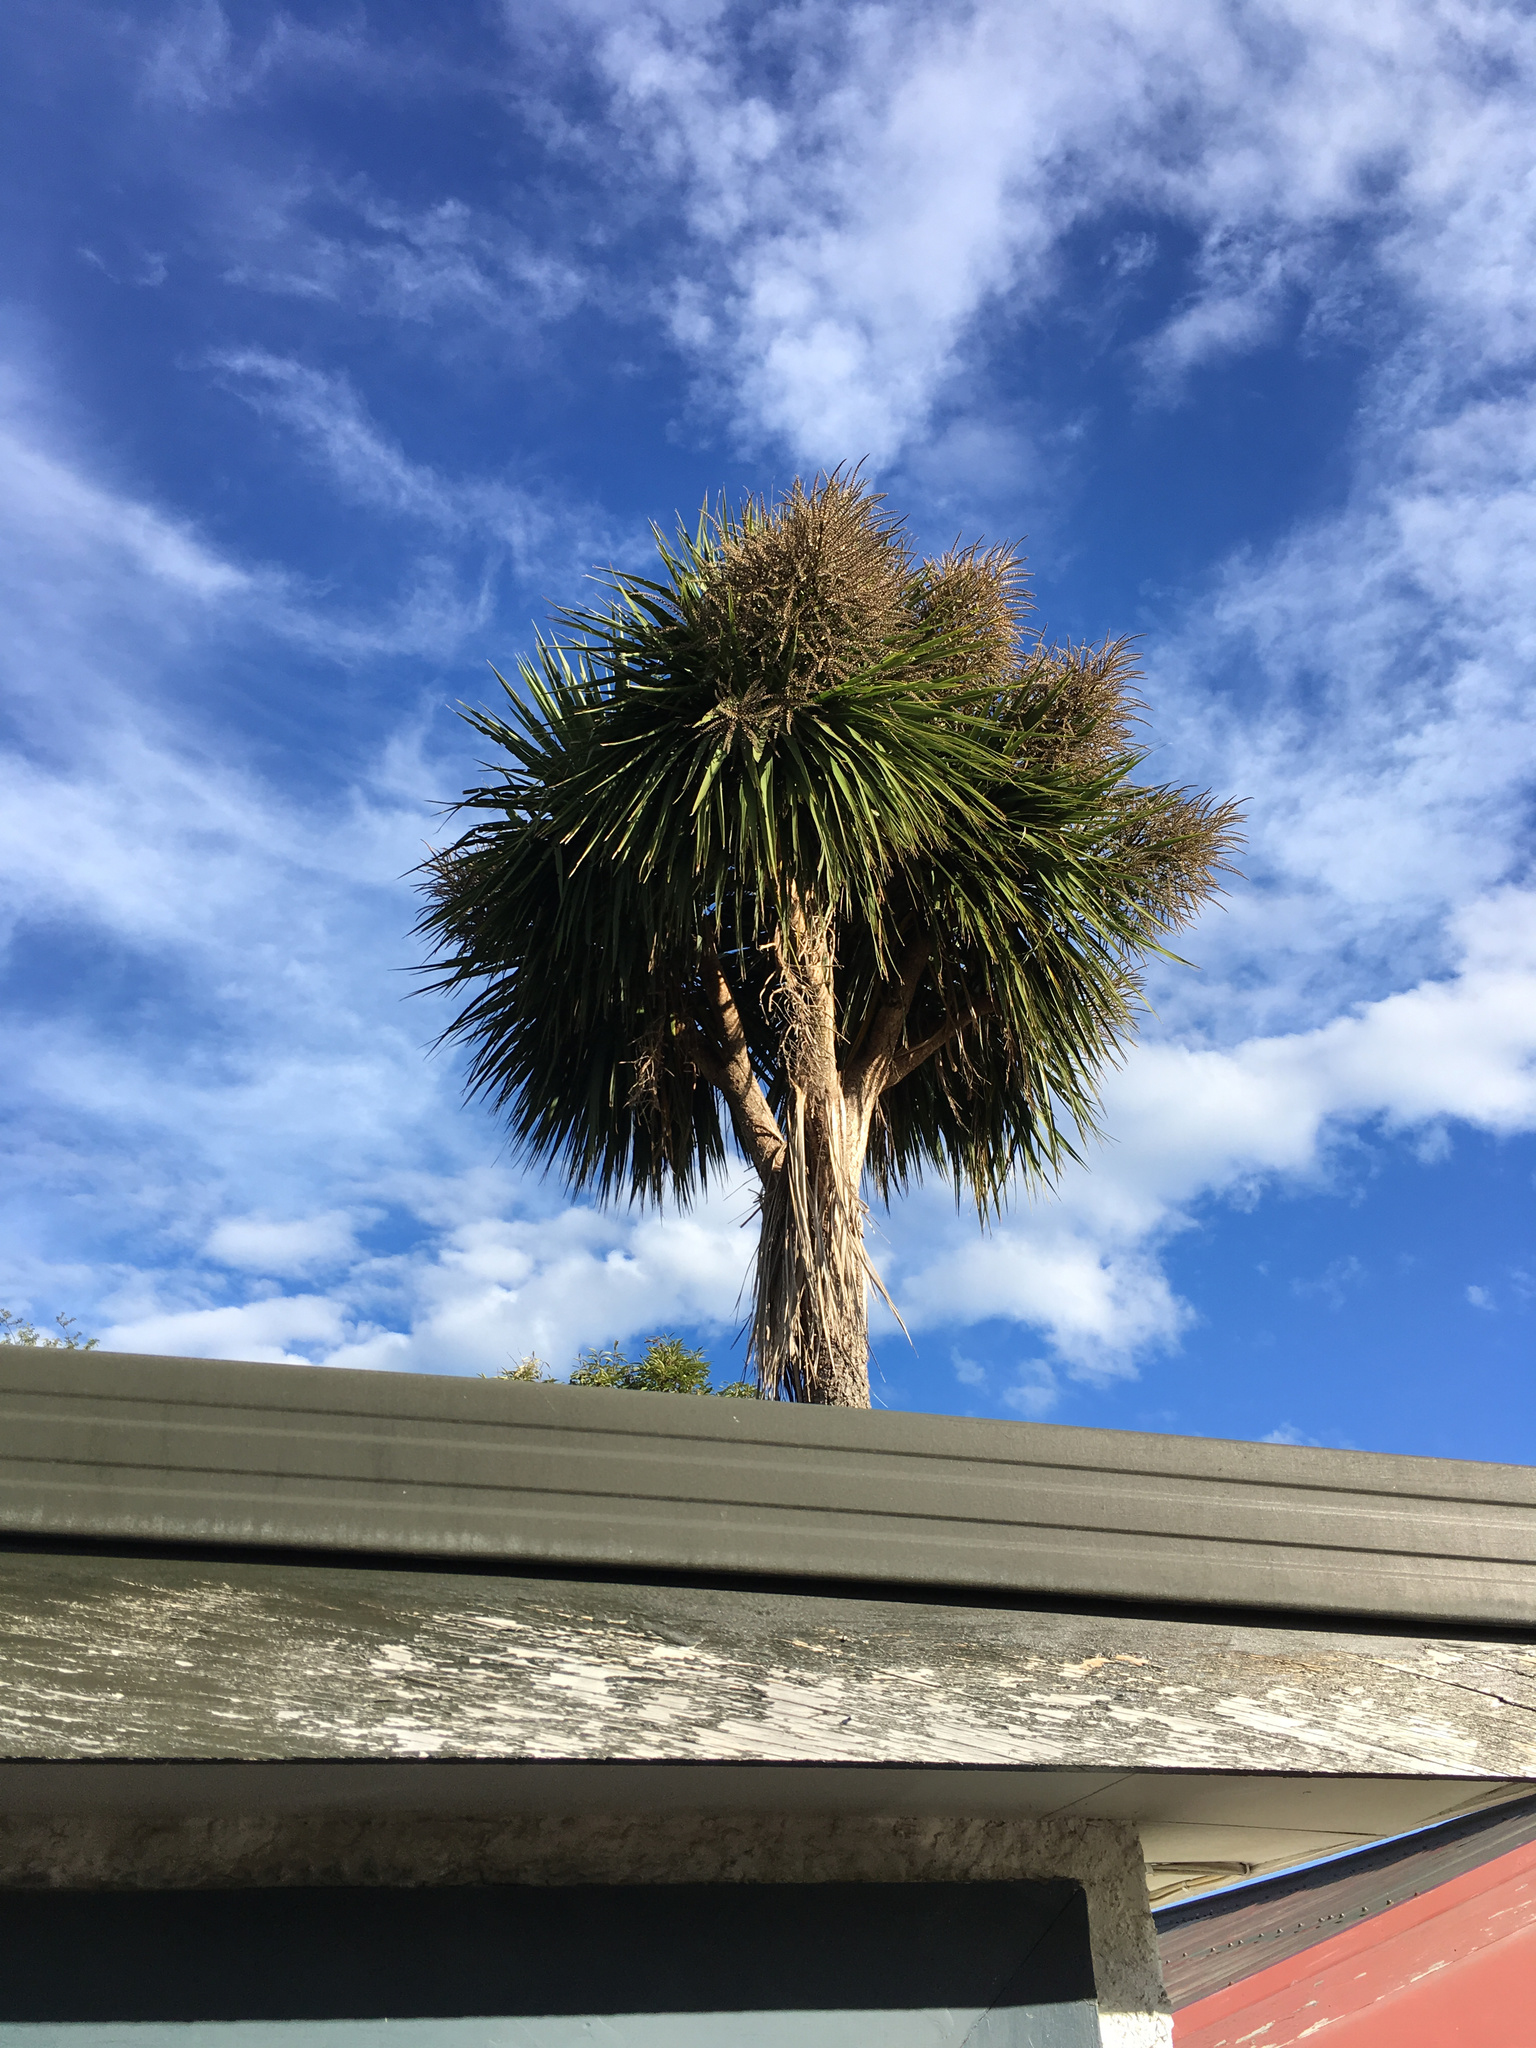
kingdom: Plantae
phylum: Tracheophyta
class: Liliopsida
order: Asparagales
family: Asparagaceae
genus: Cordyline
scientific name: Cordyline australis
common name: Cabbage-palm
